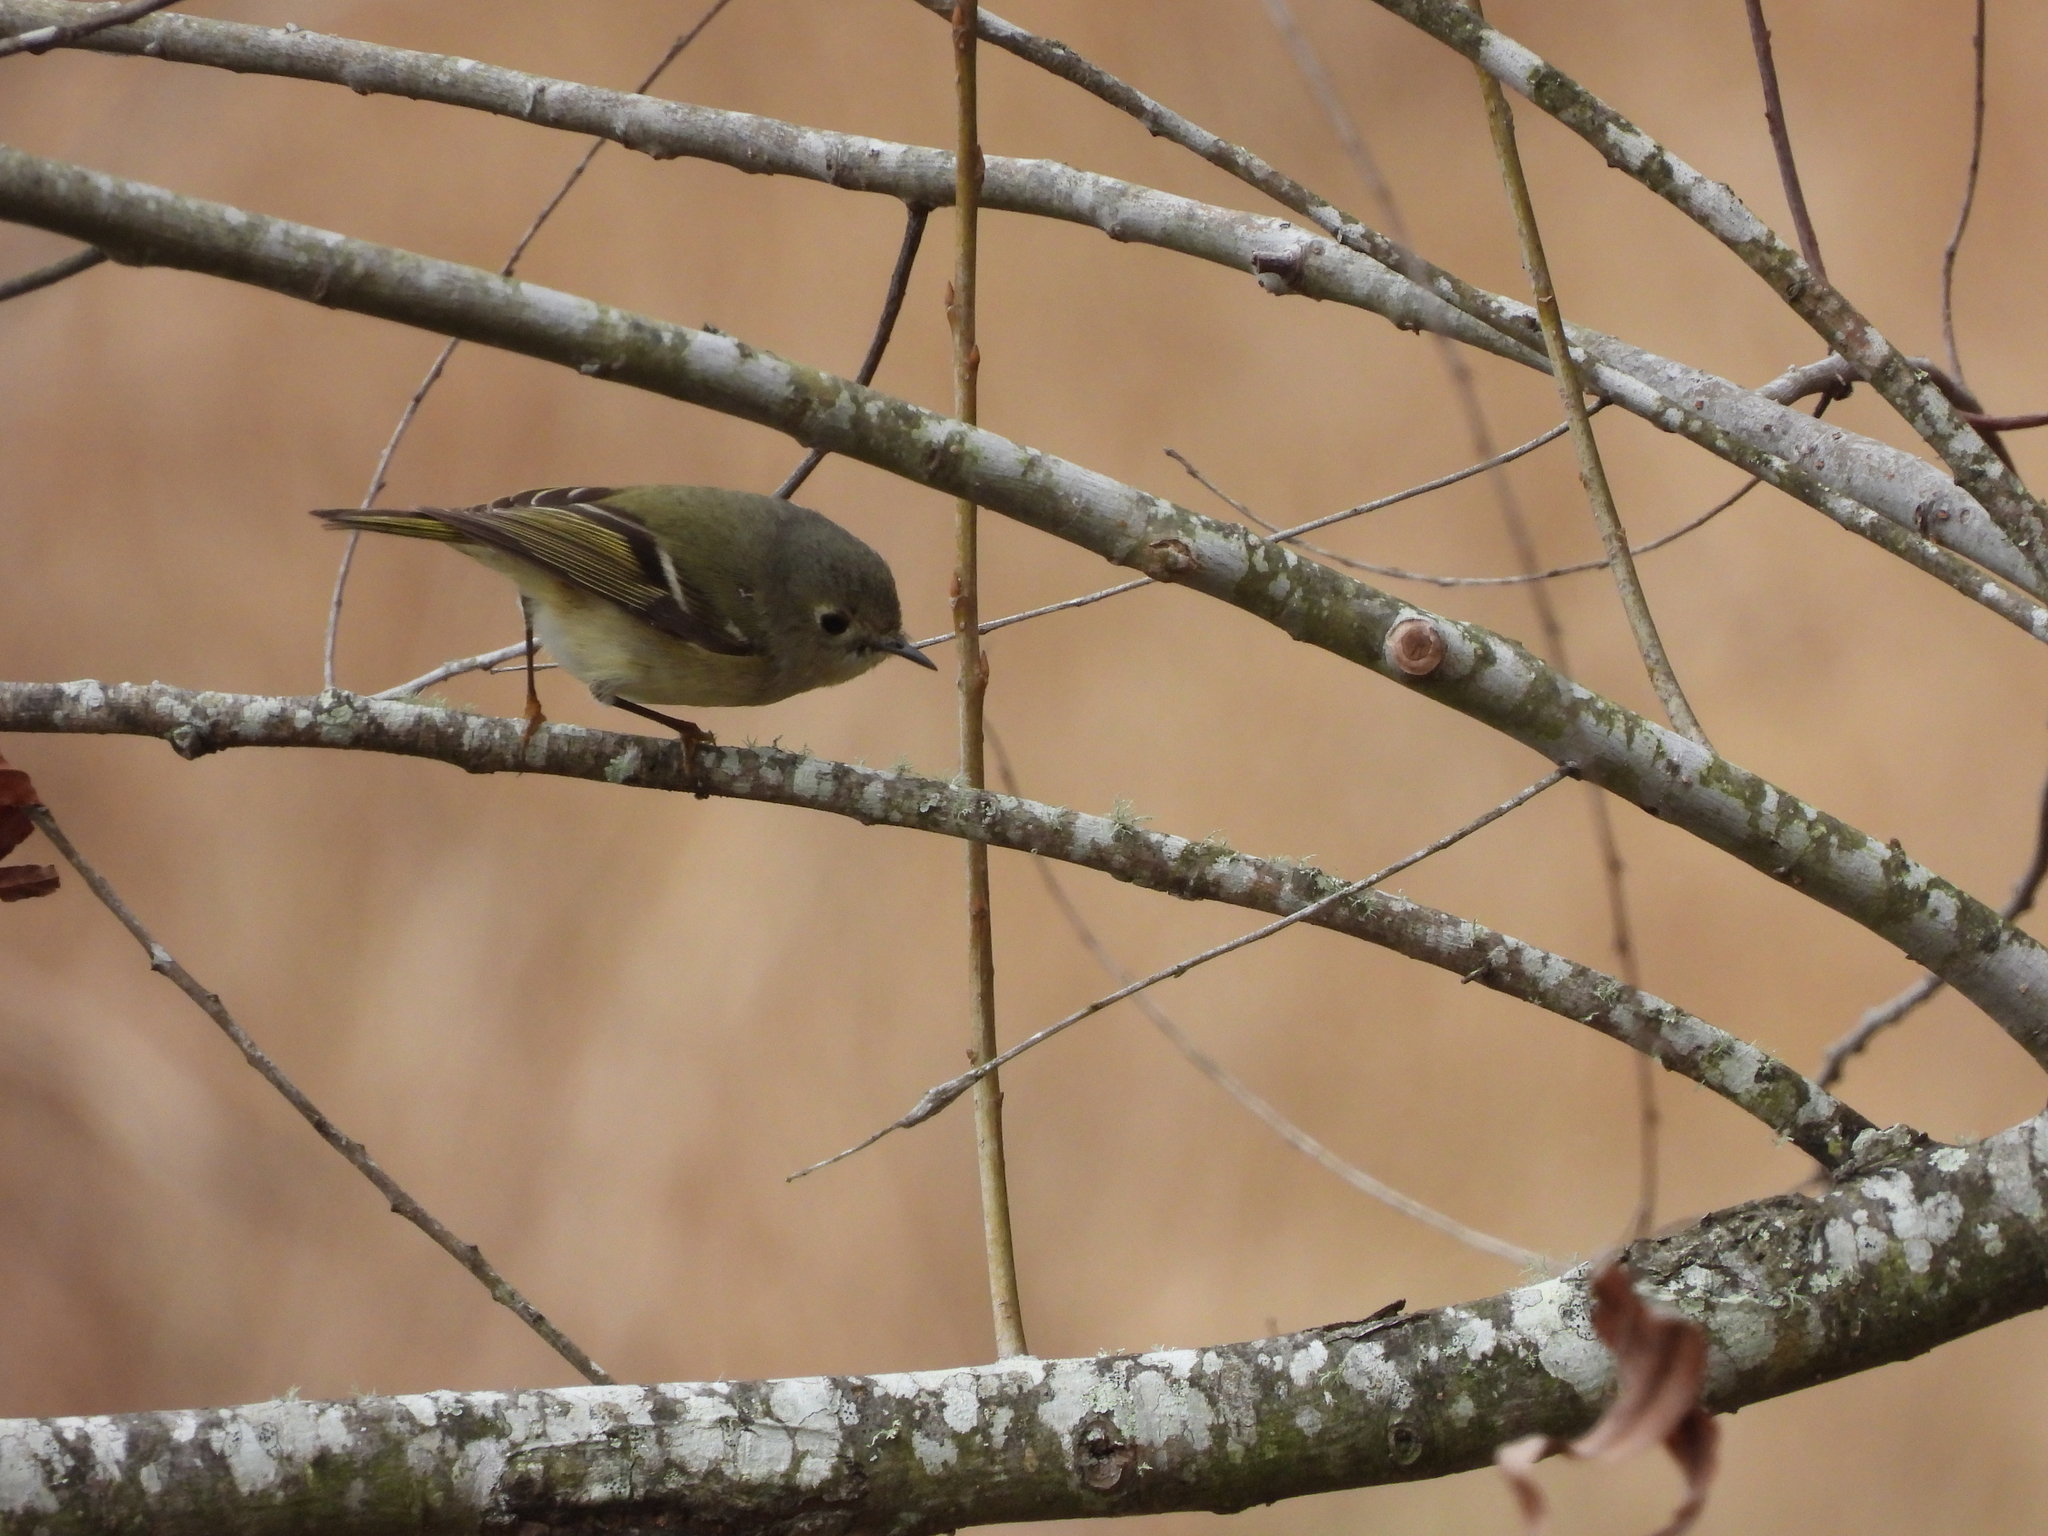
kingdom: Animalia
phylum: Chordata
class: Aves
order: Passeriformes
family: Regulidae
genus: Regulus
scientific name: Regulus calendula
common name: Ruby-crowned kinglet
